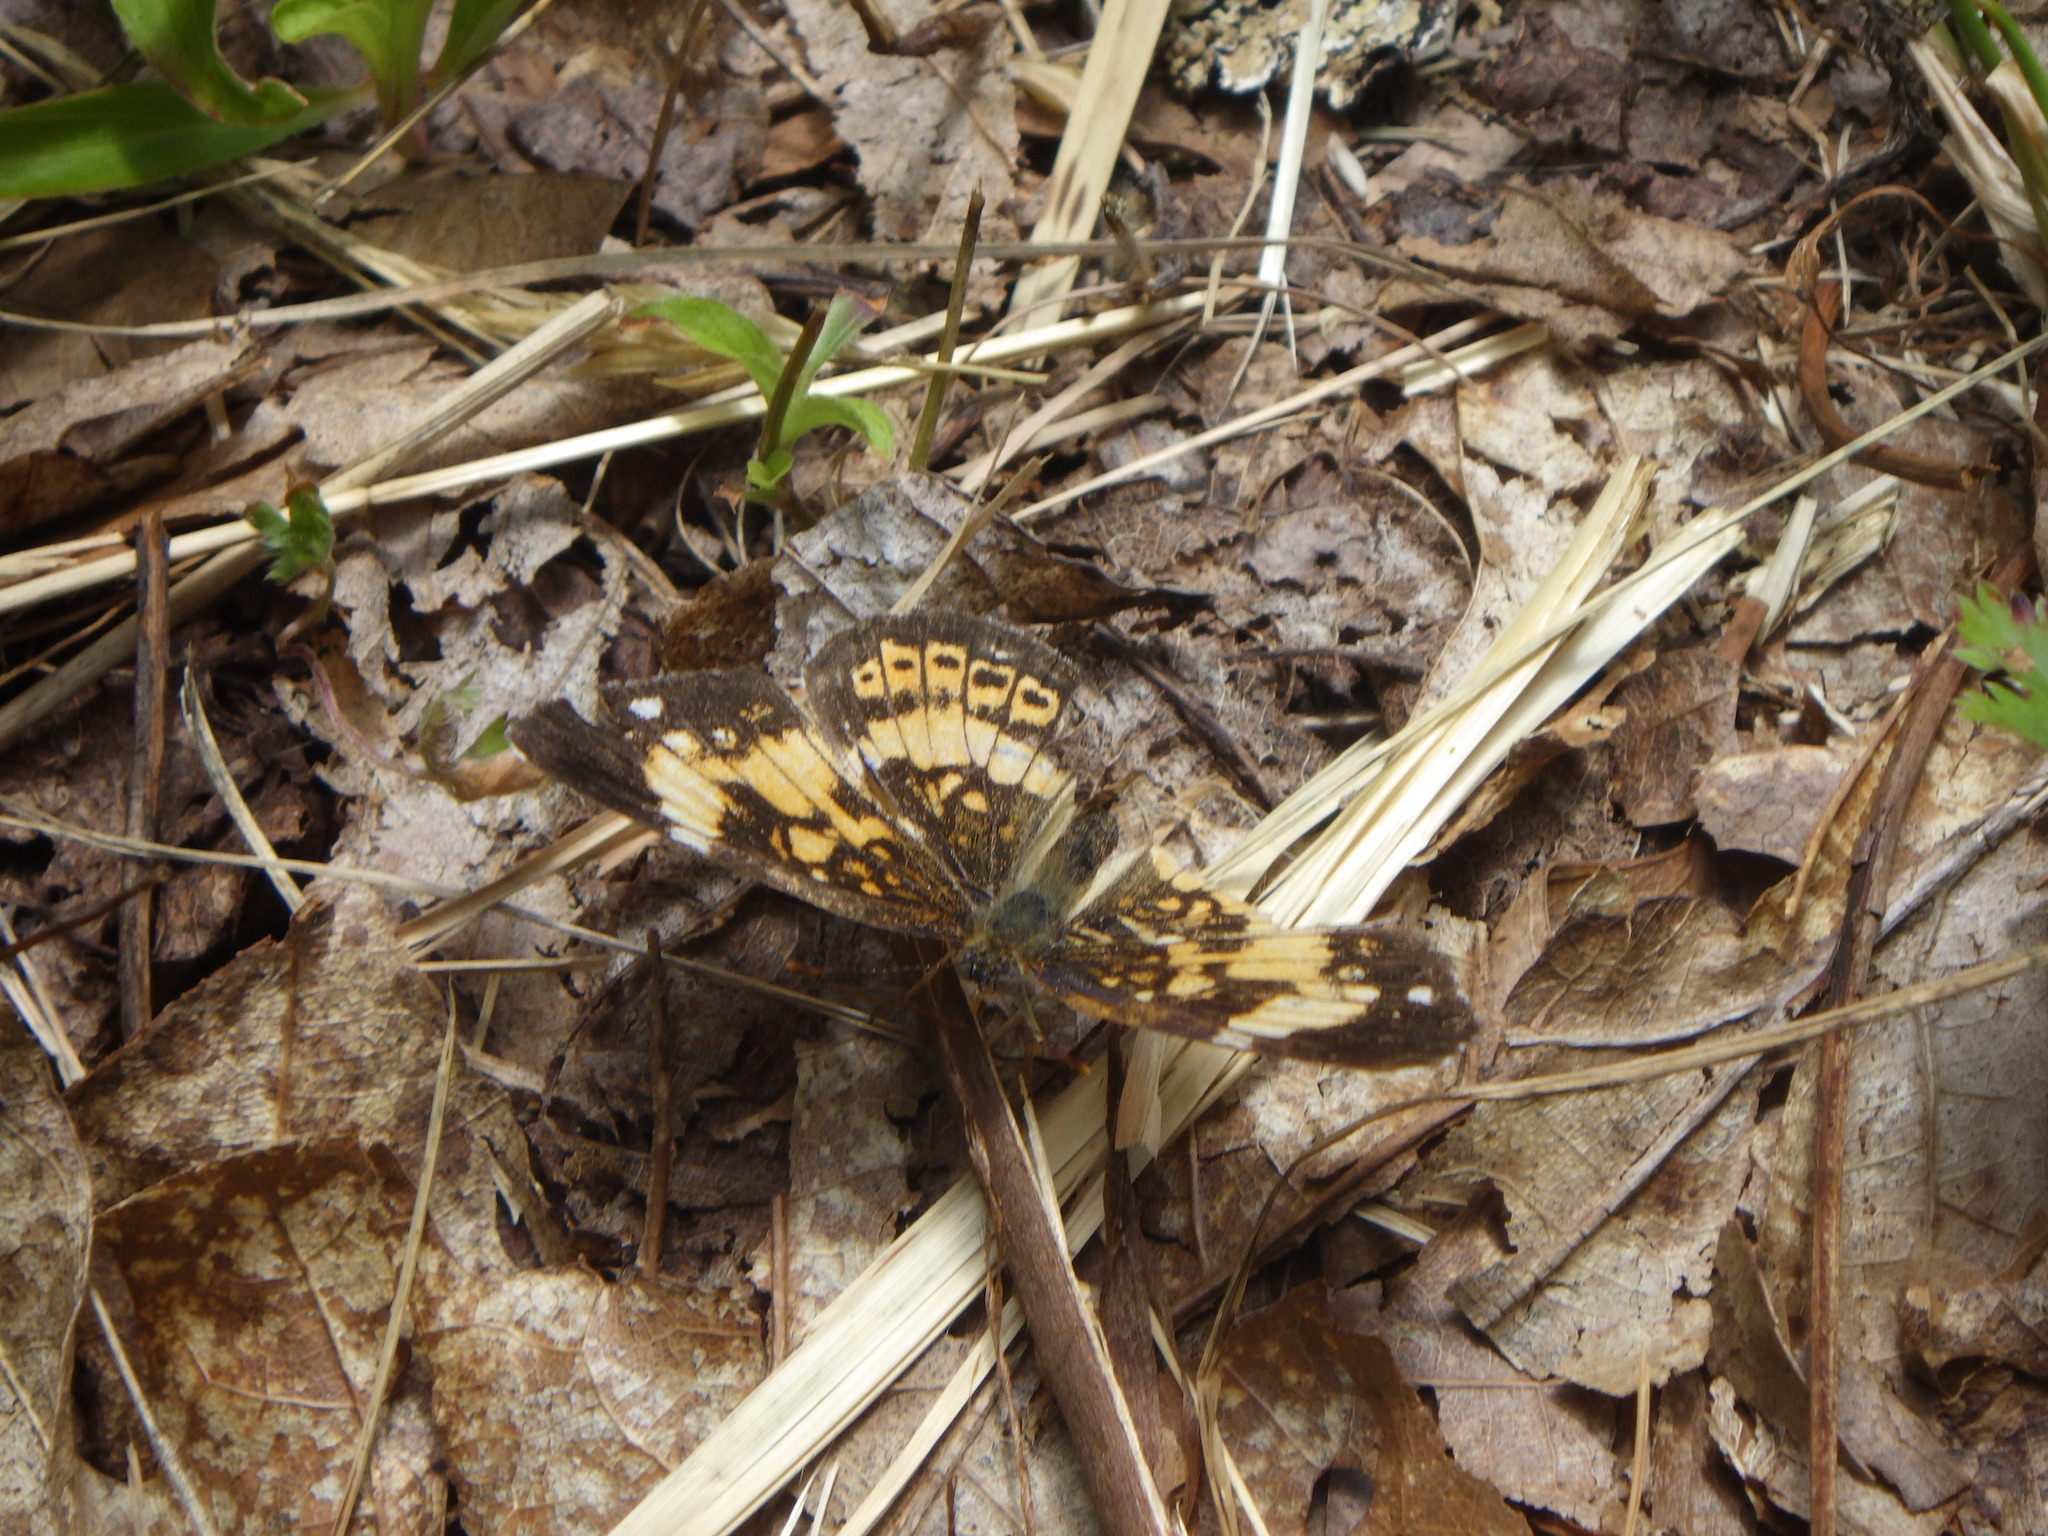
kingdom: Animalia
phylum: Arthropoda
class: Insecta
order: Lepidoptera
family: Nymphalidae
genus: Chlosyne
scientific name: Chlosyne nycteis
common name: Silvery checkerspot
